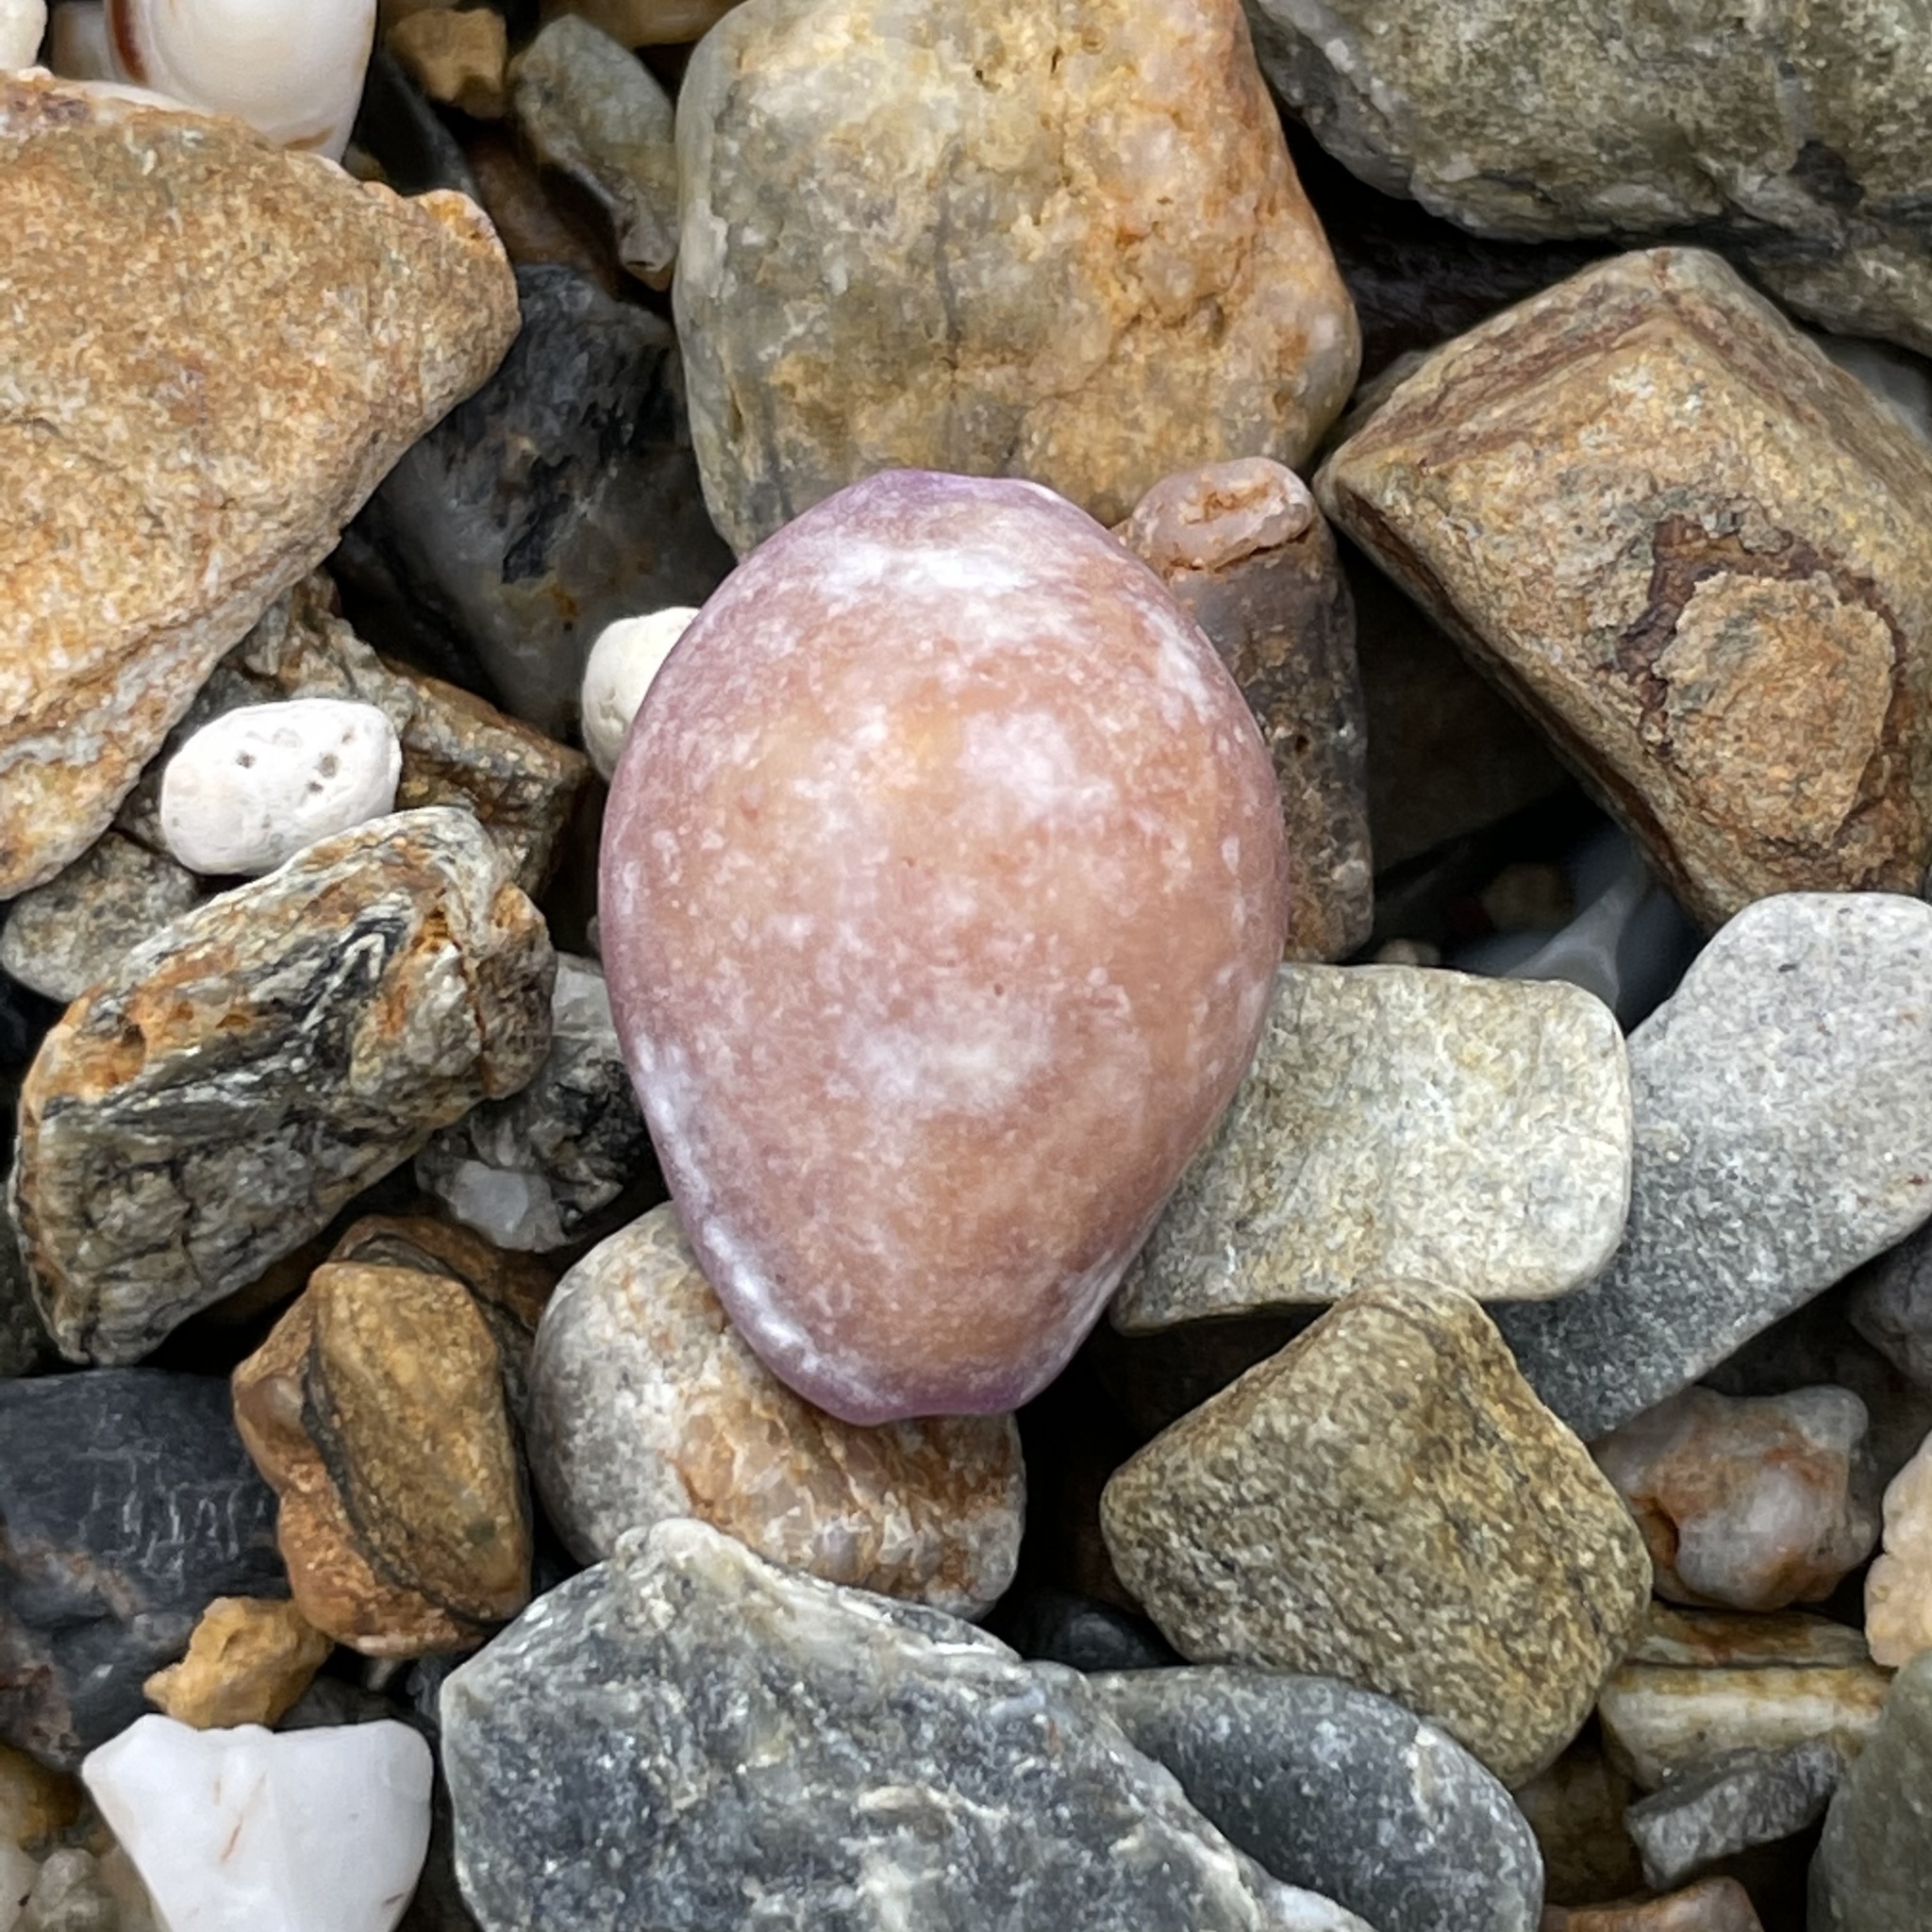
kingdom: Animalia
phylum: Mollusca
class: Gastropoda
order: Littorinimorpha
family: Cypraeidae
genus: Naria
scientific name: Naria poraria
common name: Cowrie
